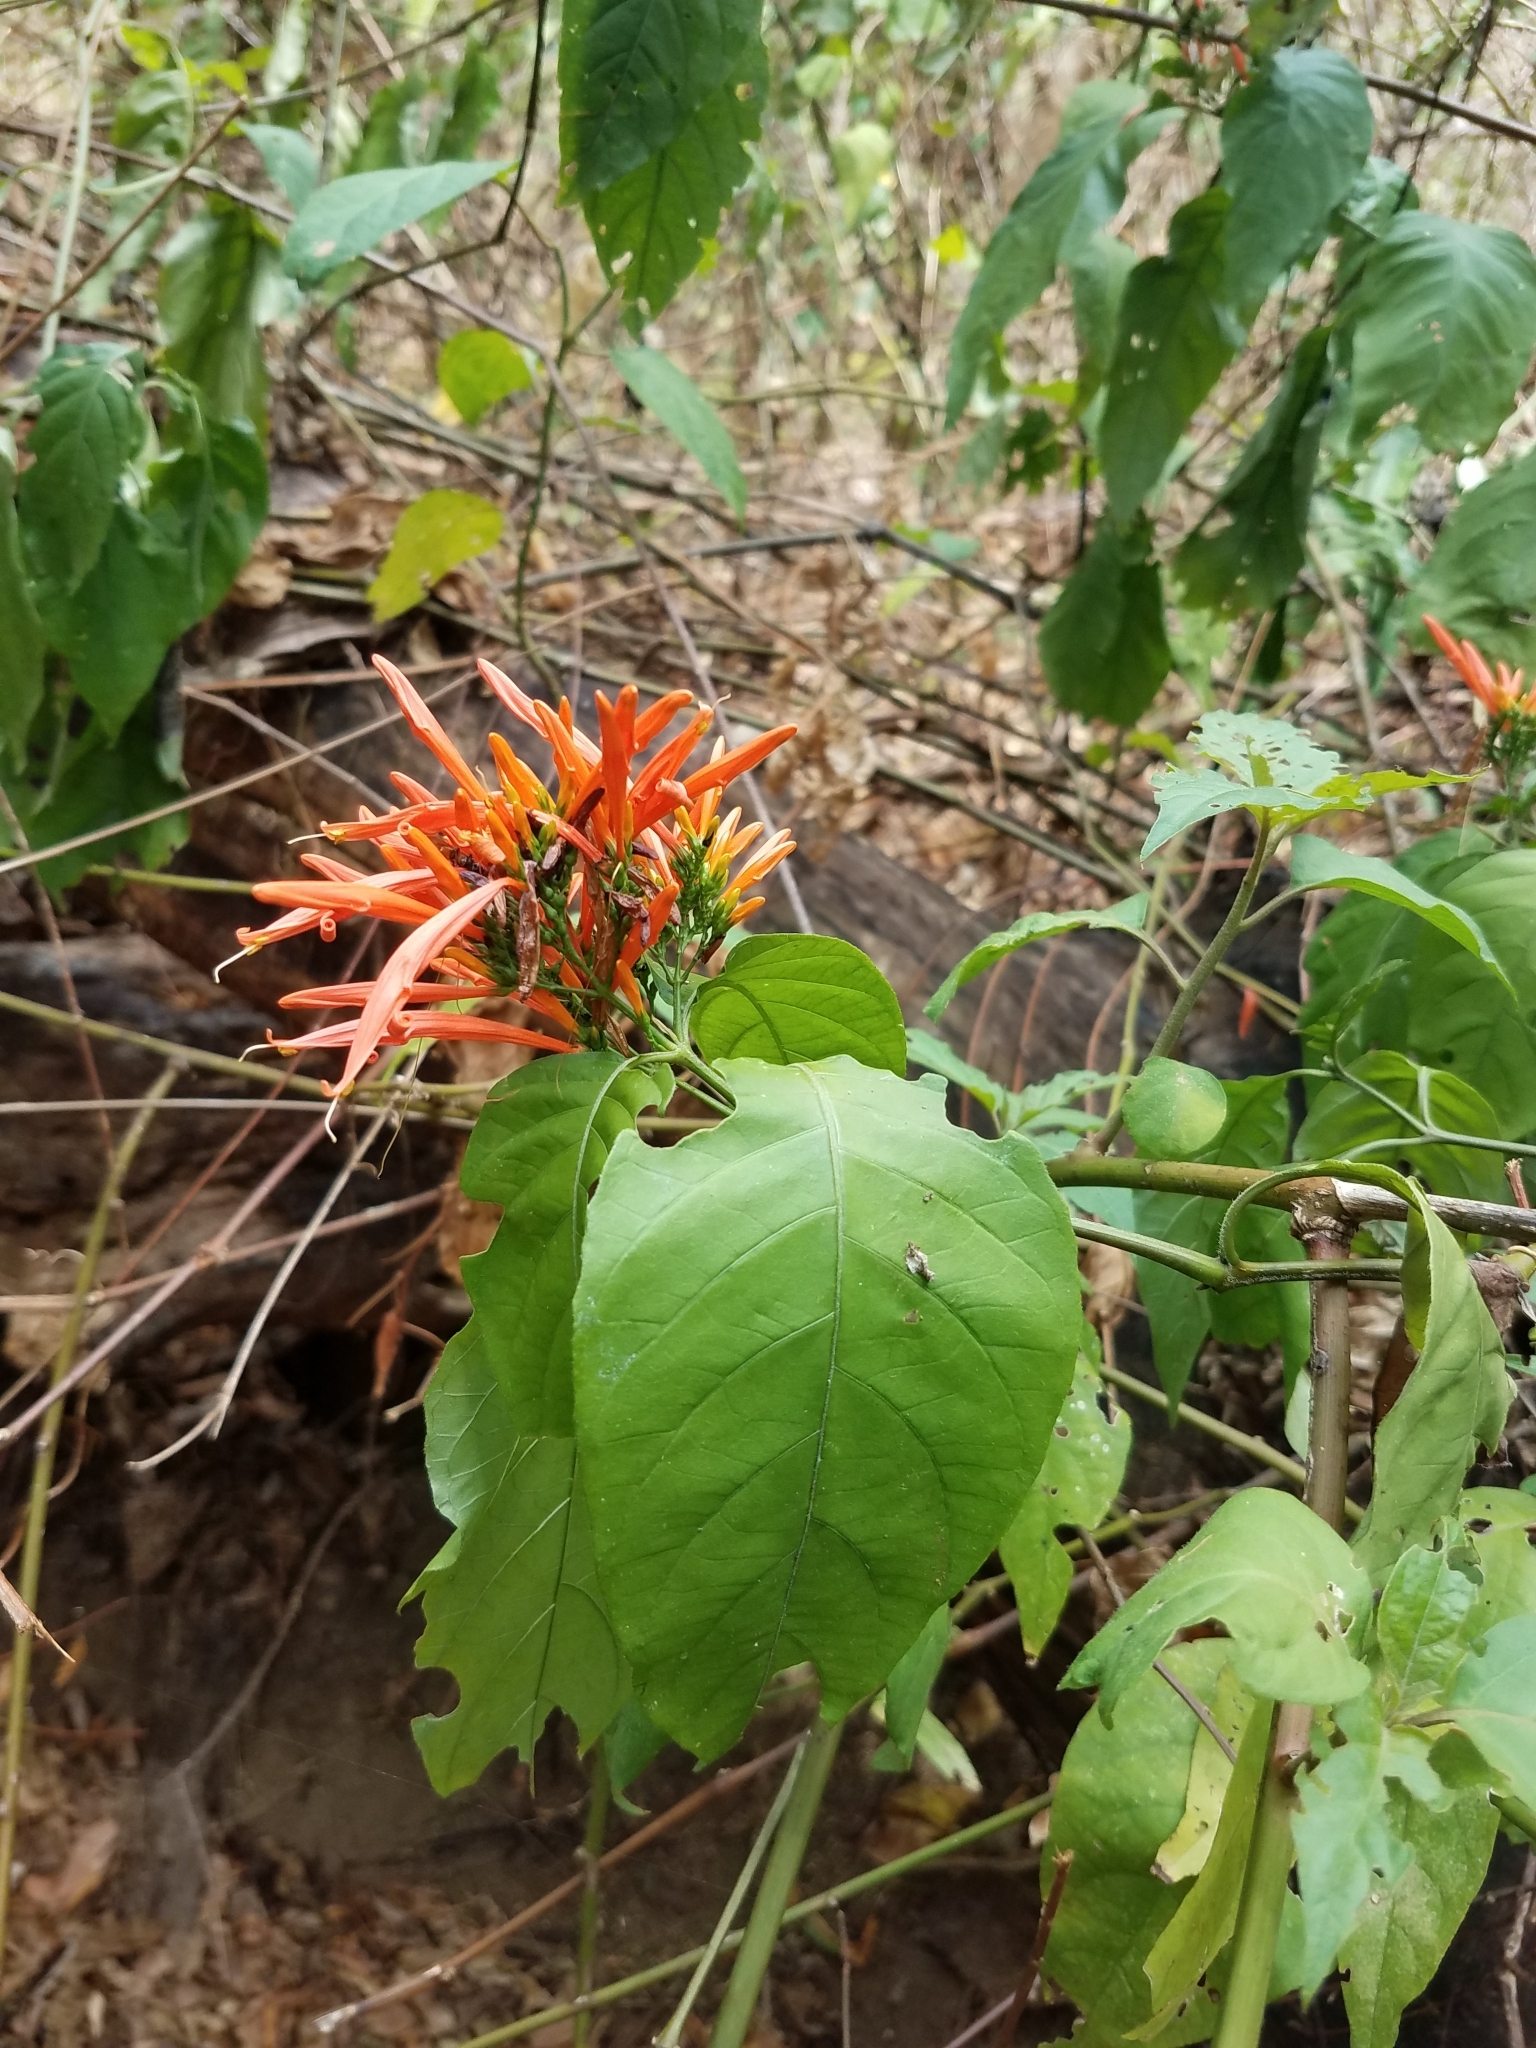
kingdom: Plantae
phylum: Tracheophyta
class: Magnoliopsida
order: Lamiales
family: Acanthaceae
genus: Justicia
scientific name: Justicia spicigera
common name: Mohintli
